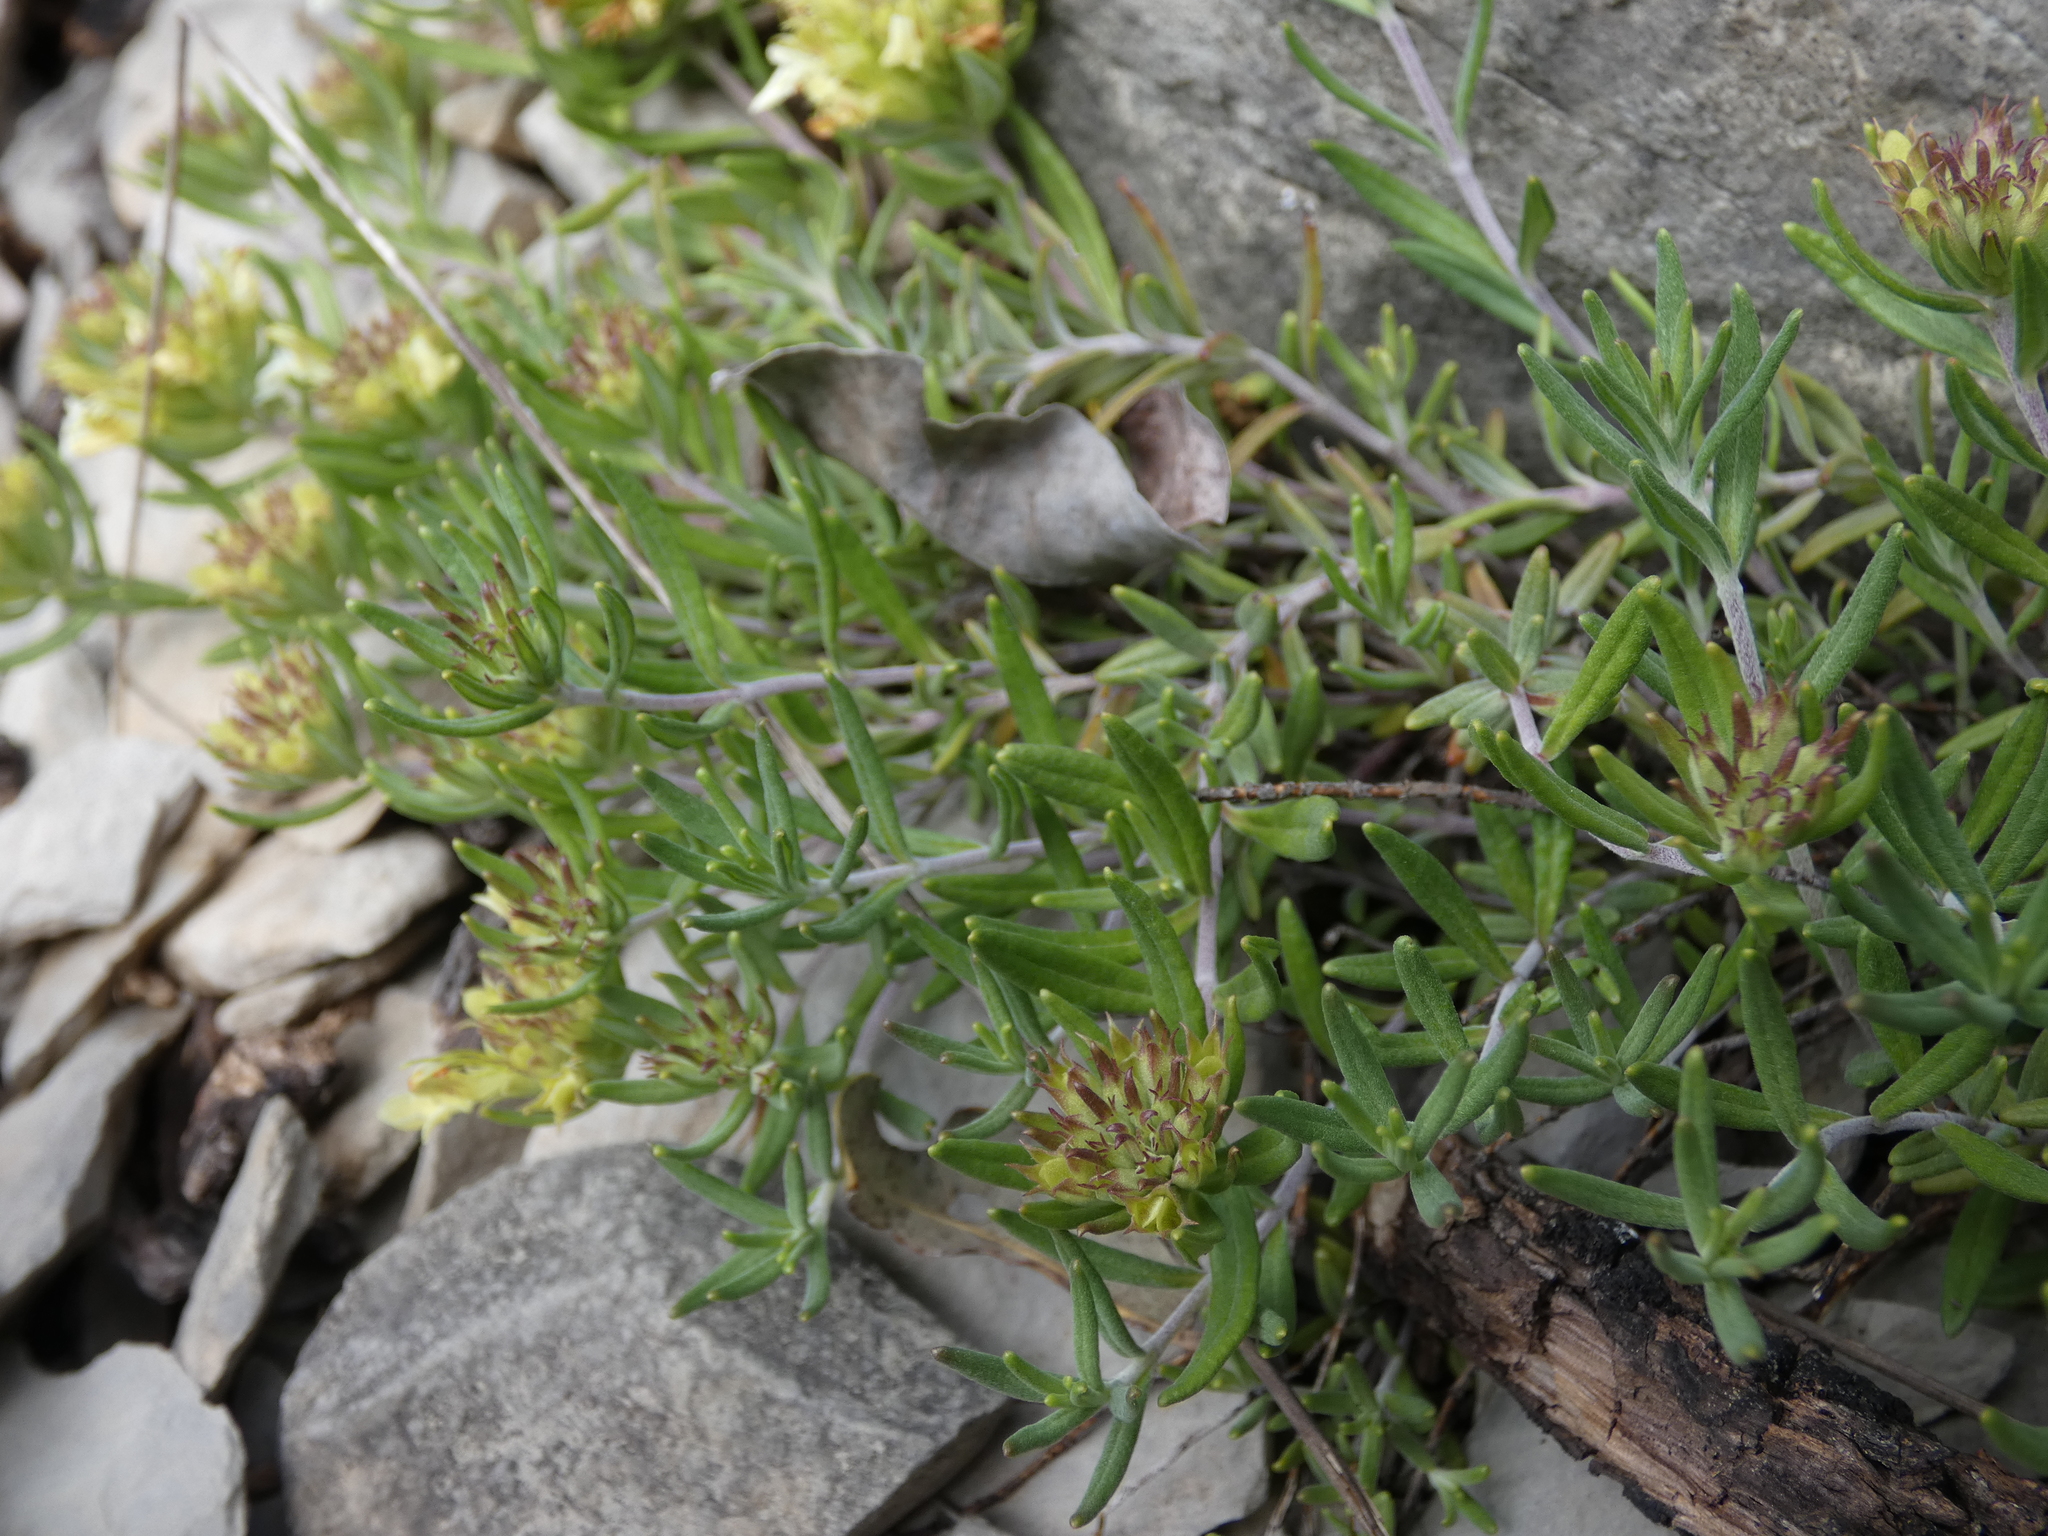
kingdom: Plantae
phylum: Tracheophyta
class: Magnoliopsida
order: Lamiales
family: Lamiaceae
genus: Teucrium
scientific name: Teucrium montanum
